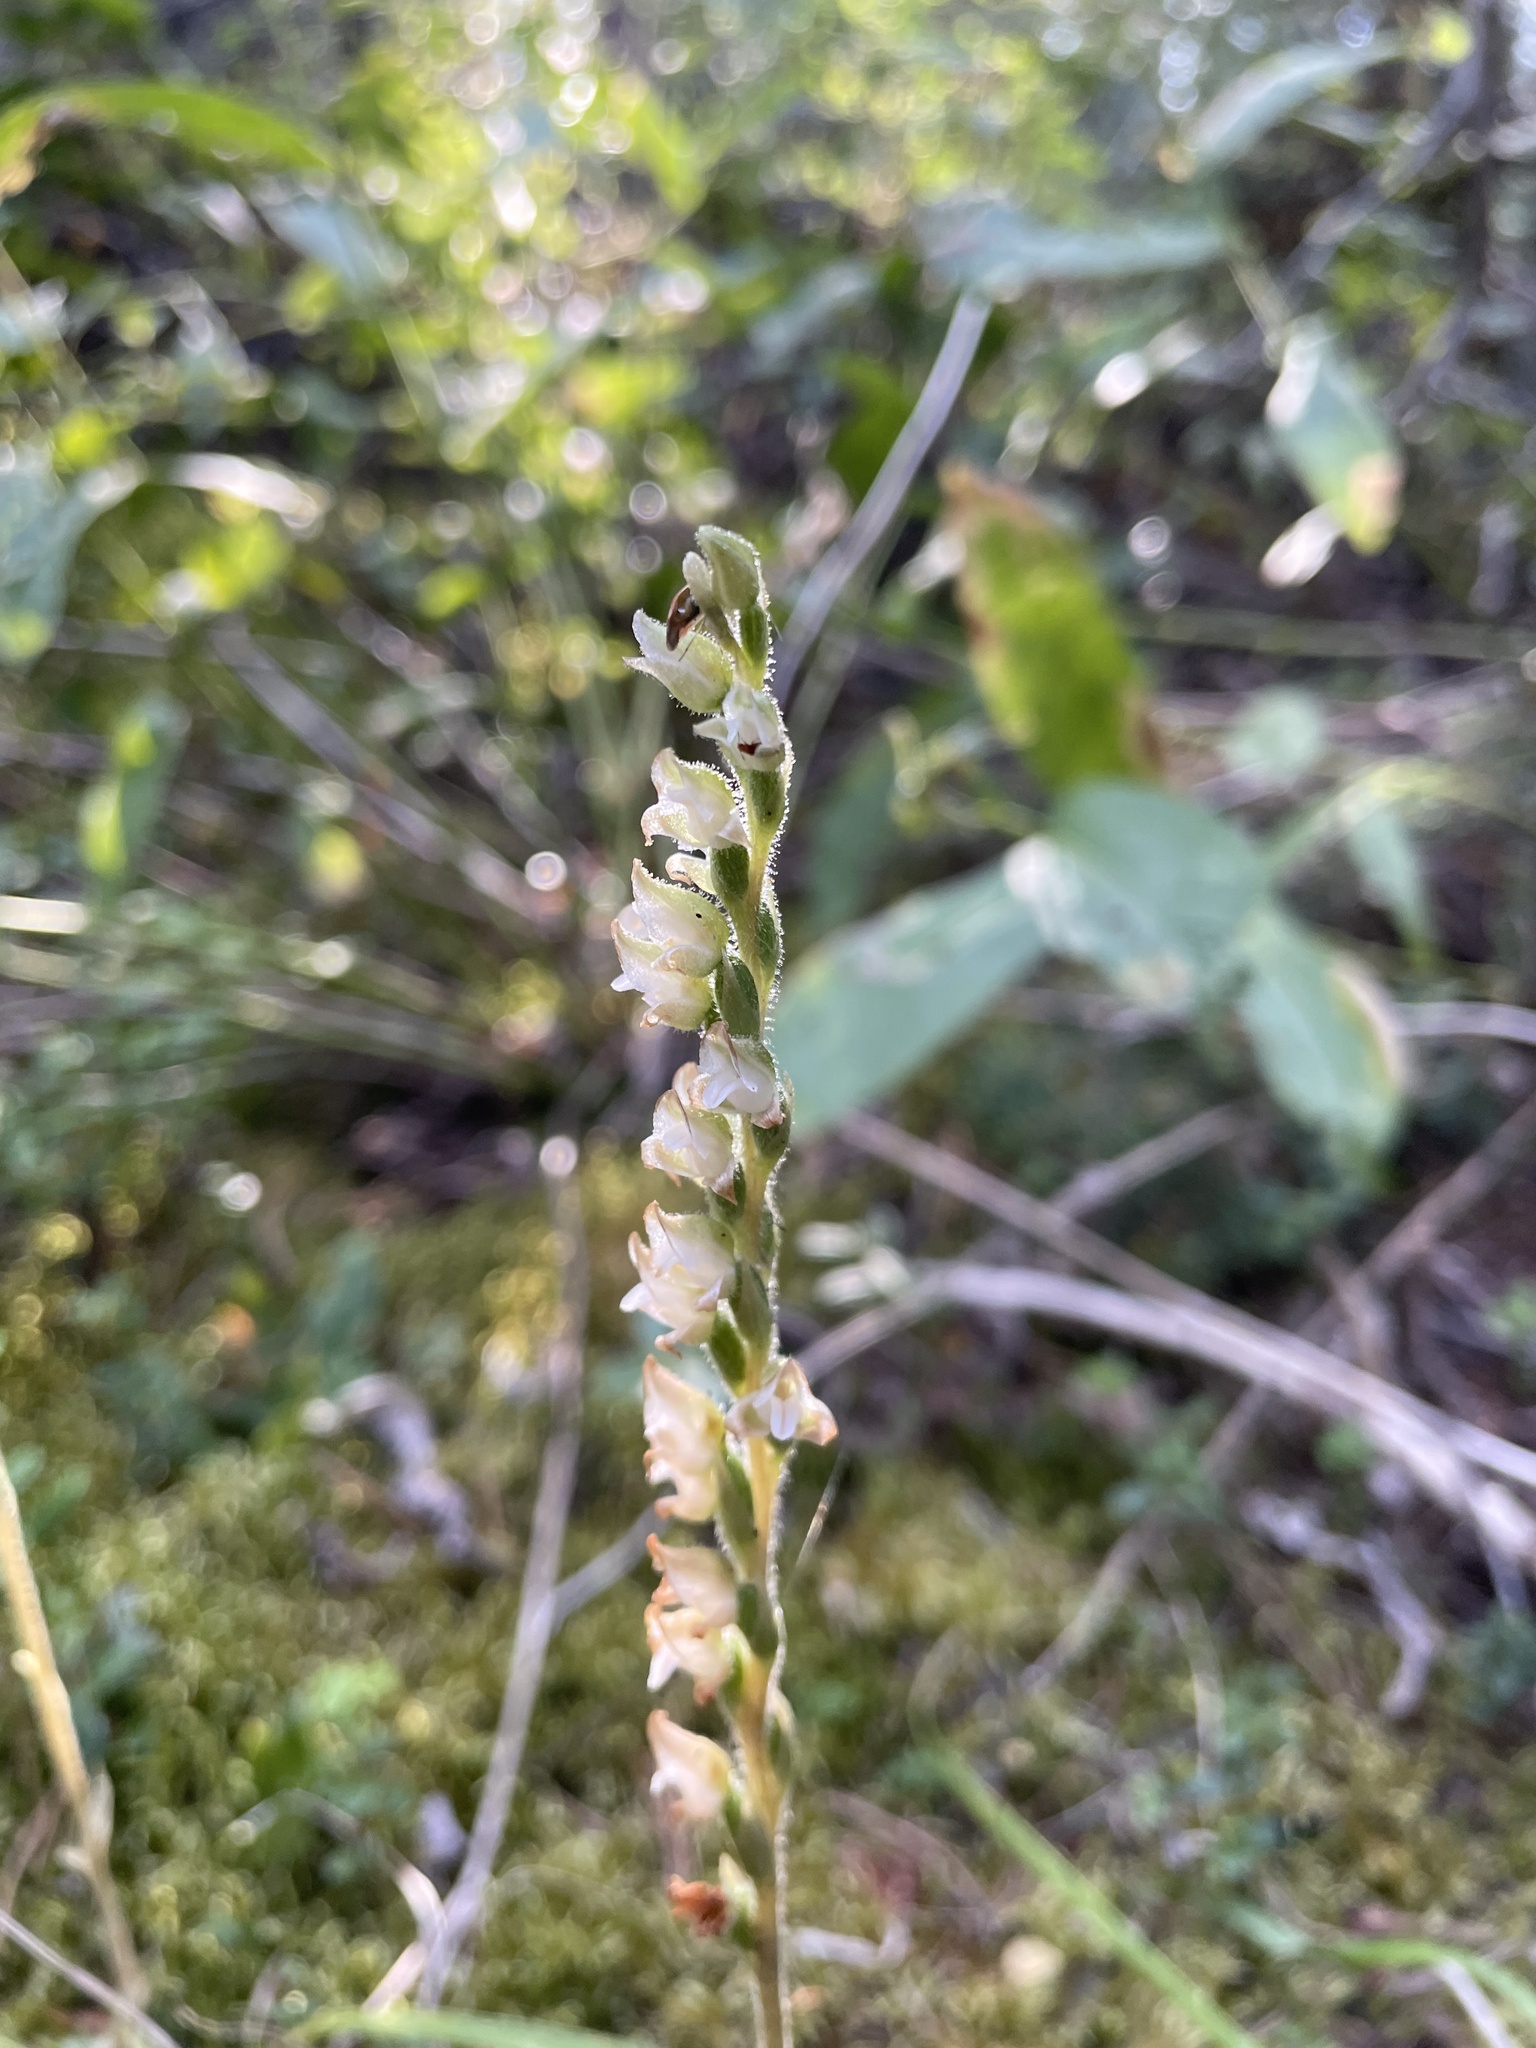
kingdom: Plantae
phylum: Tracheophyta
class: Liliopsida
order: Asparagales
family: Orchidaceae
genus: Goodyera
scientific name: Goodyera oblongifolia
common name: Giant rattlesnake-plantain
